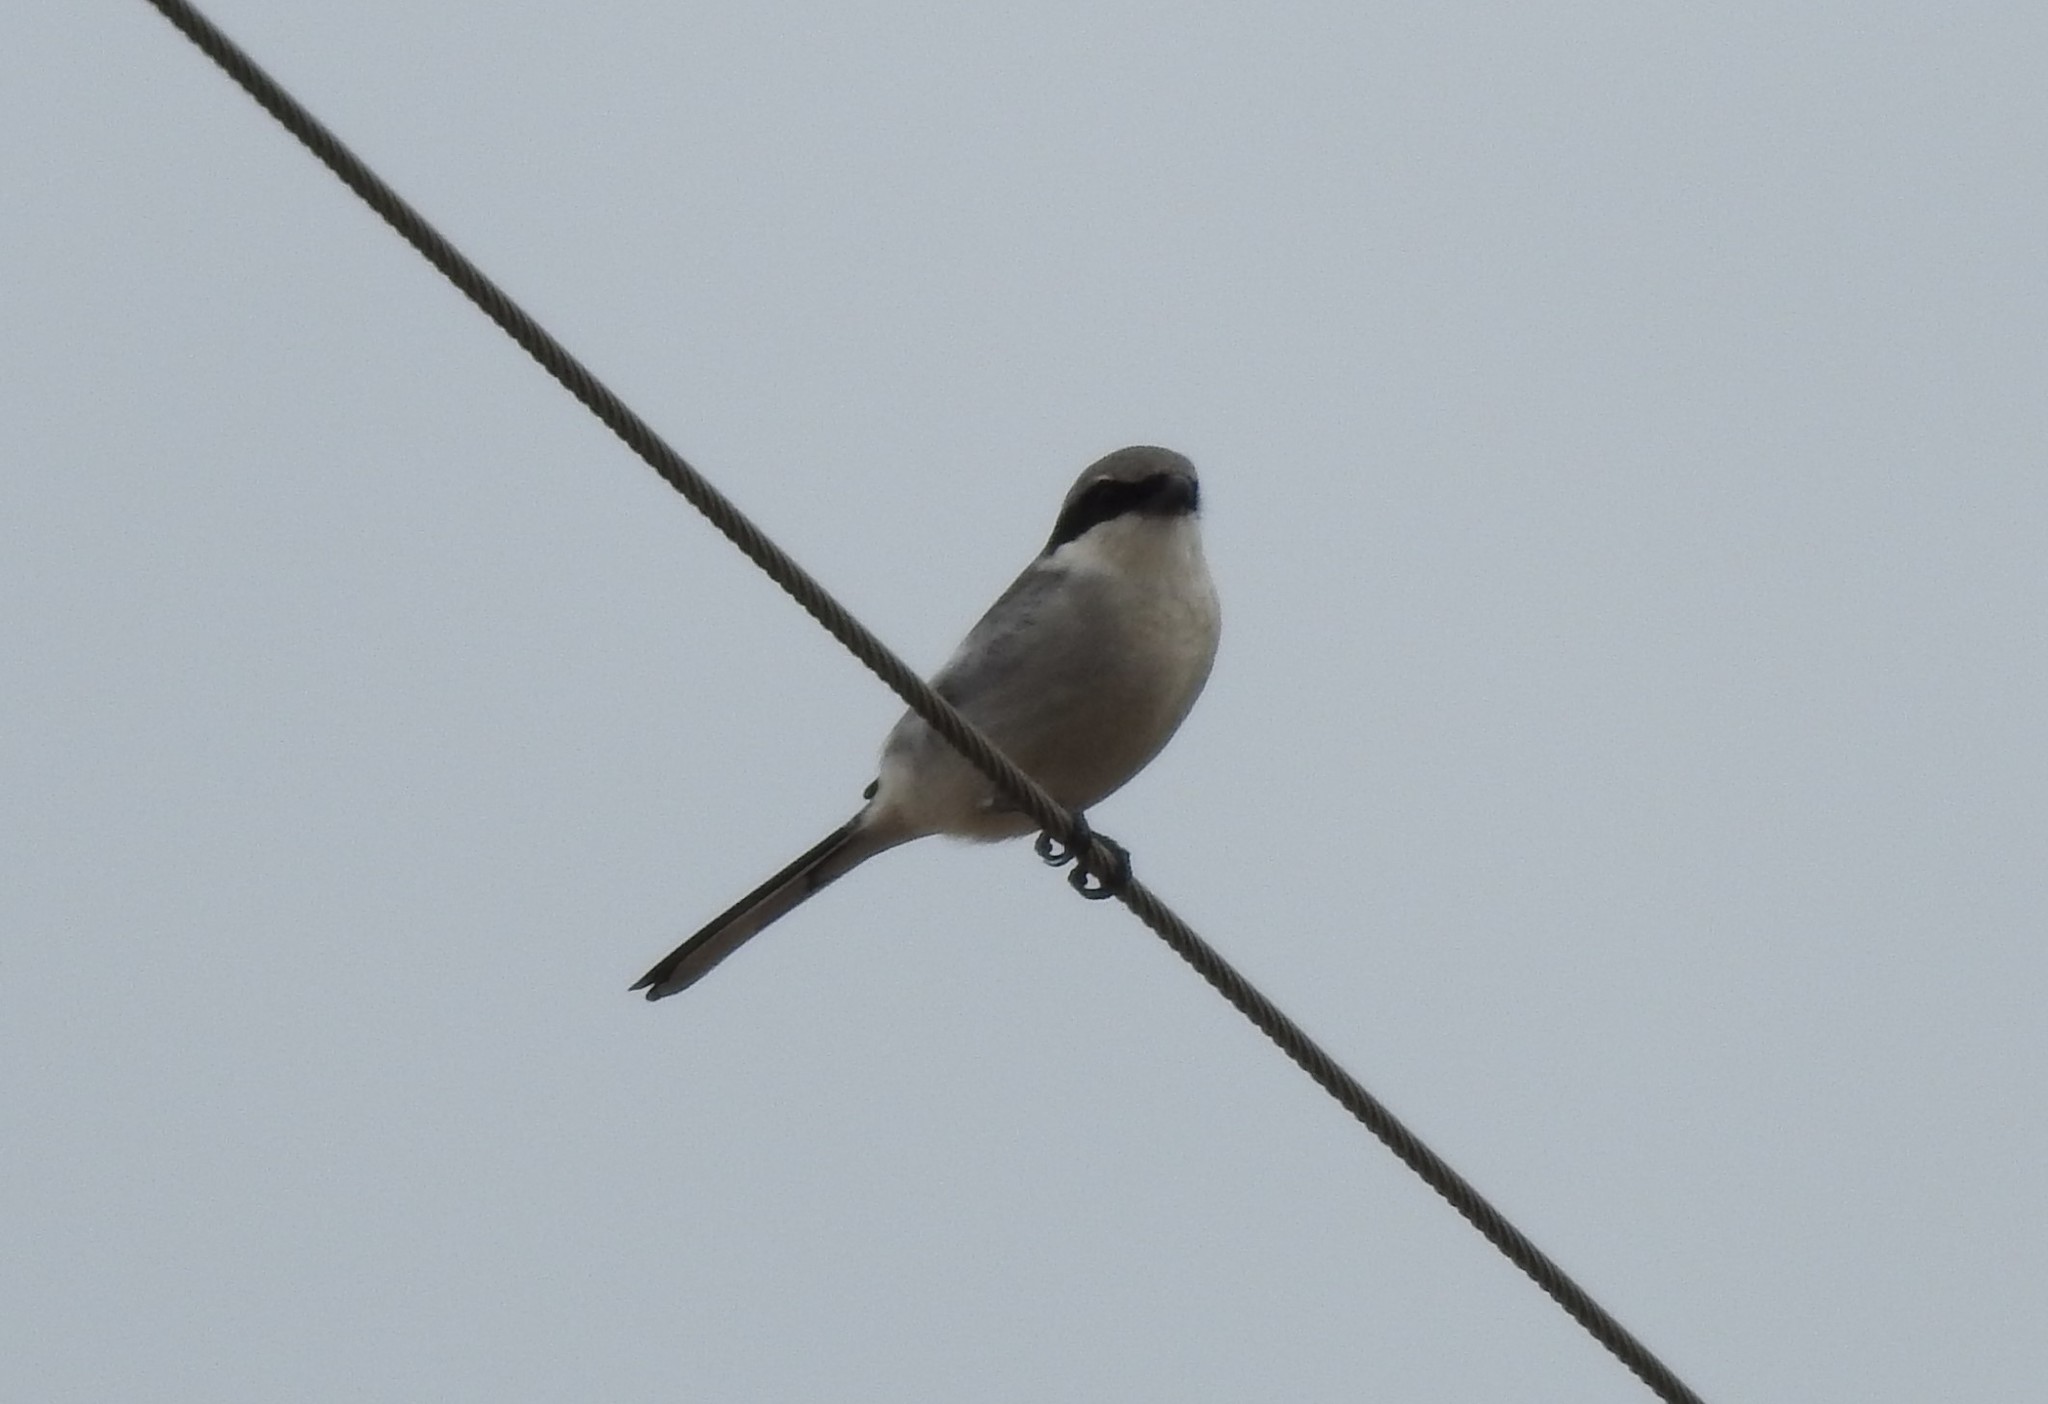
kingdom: Animalia
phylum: Chordata
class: Aves
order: Passeriformes
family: Laniidae
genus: Lanius
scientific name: Lanius ludovicianus
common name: Loggerhead shrike
